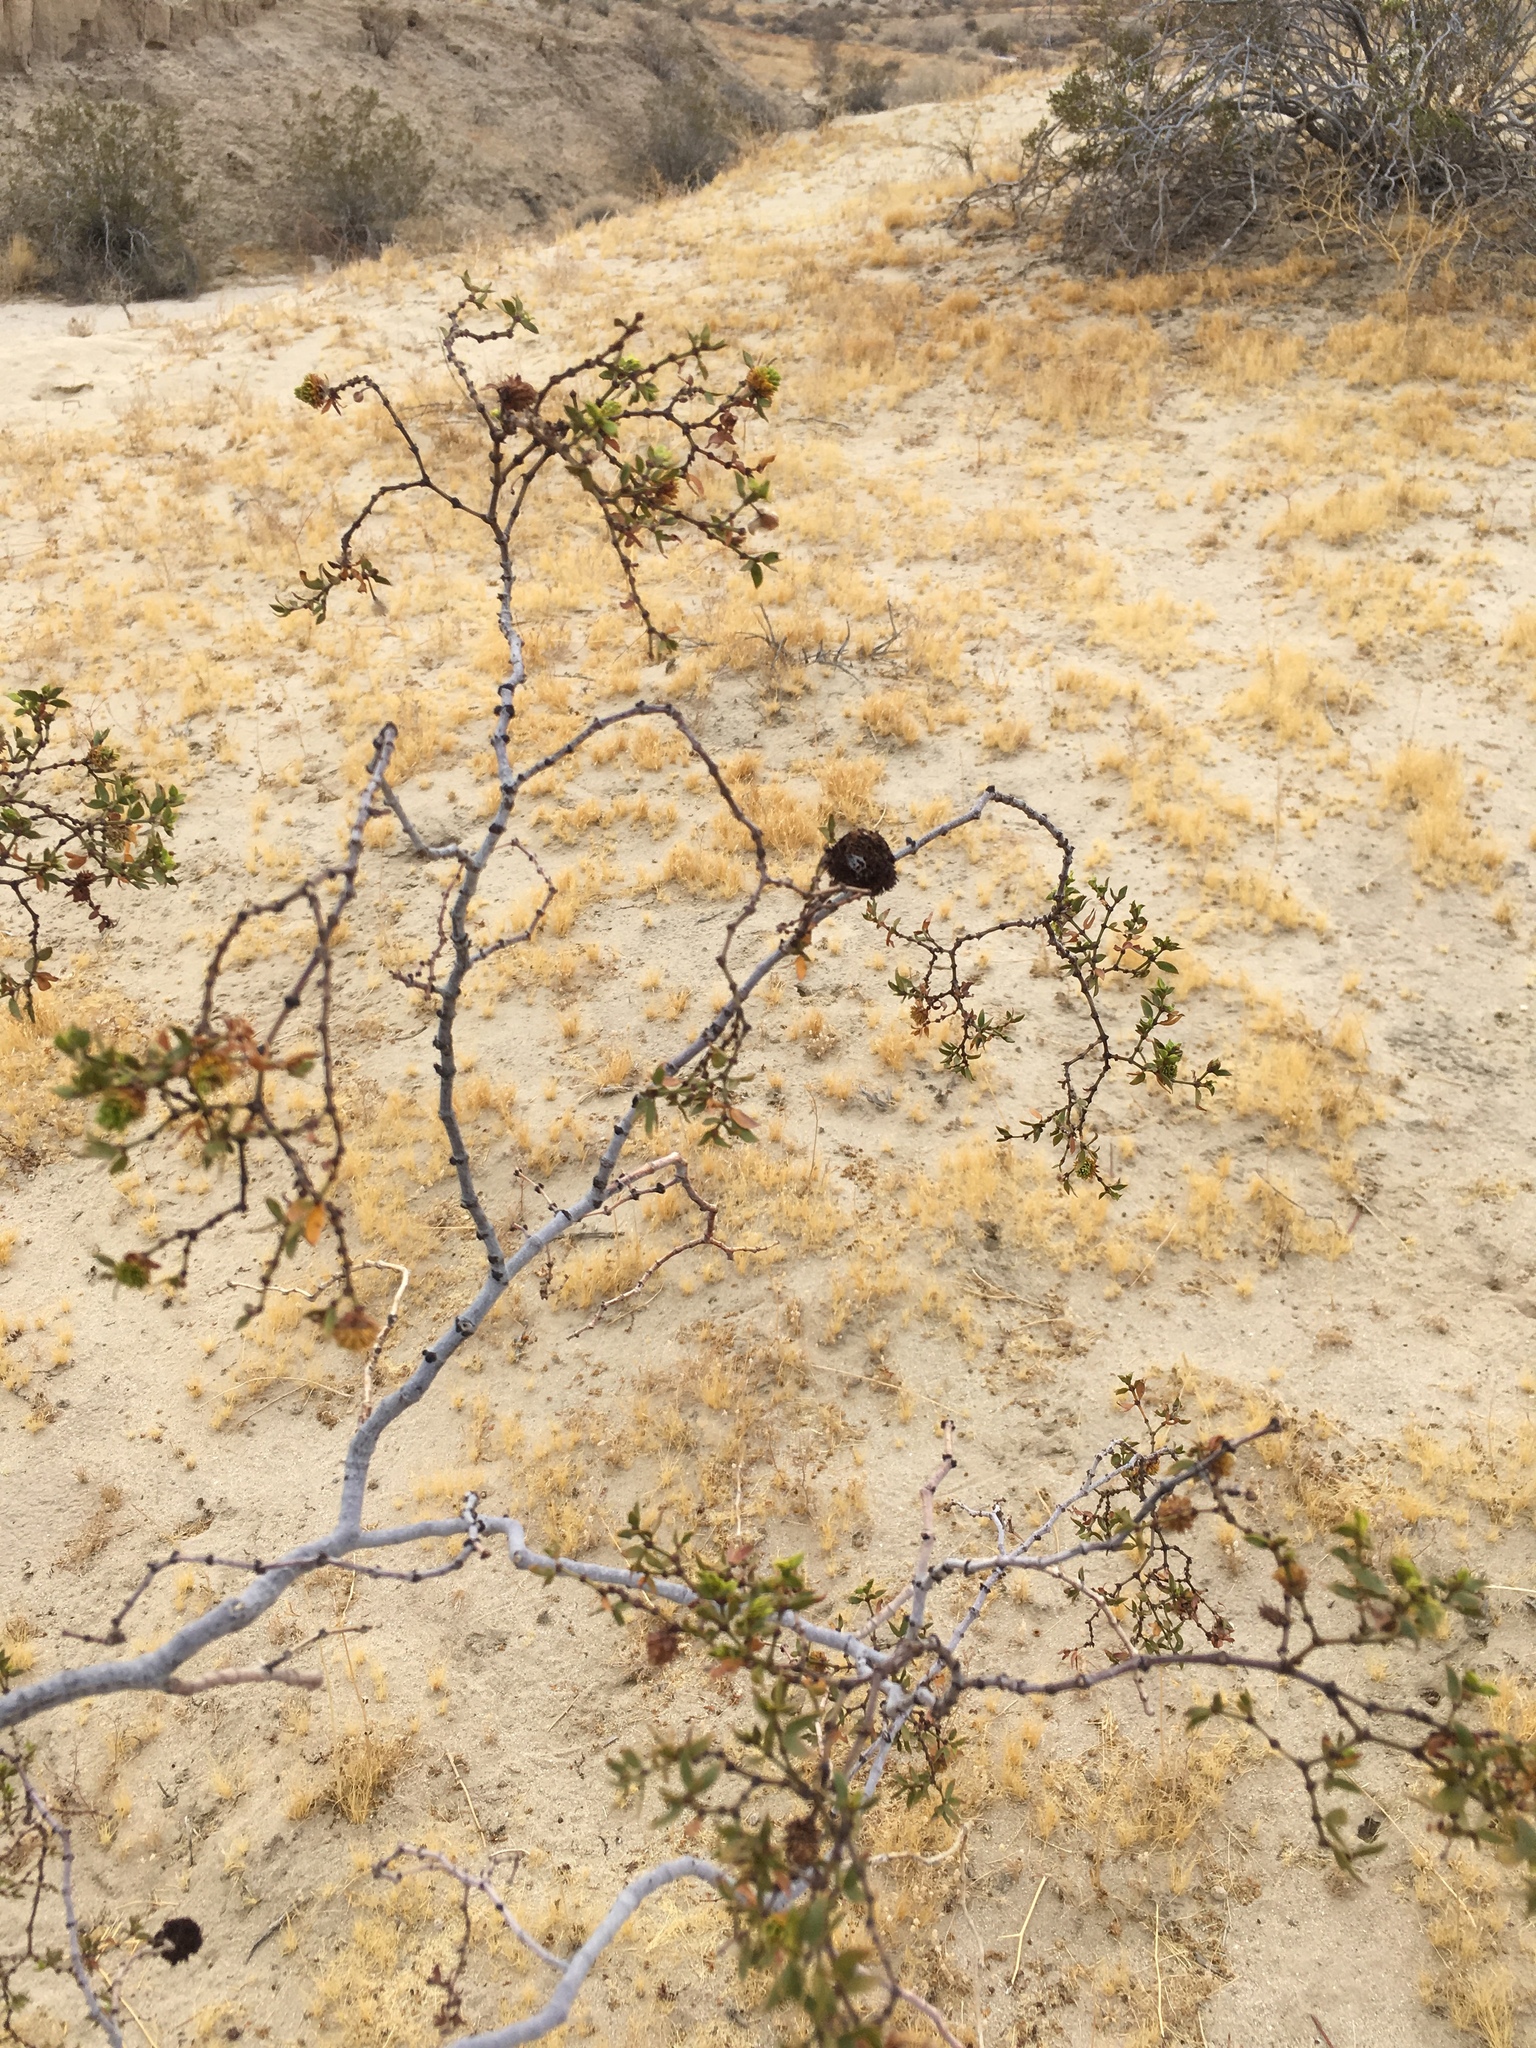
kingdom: Animalia
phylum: Arthropoda
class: Insecta
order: Diptera
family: Cecidomyiidae
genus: Asphondylia
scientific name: Asphondylia auripila
